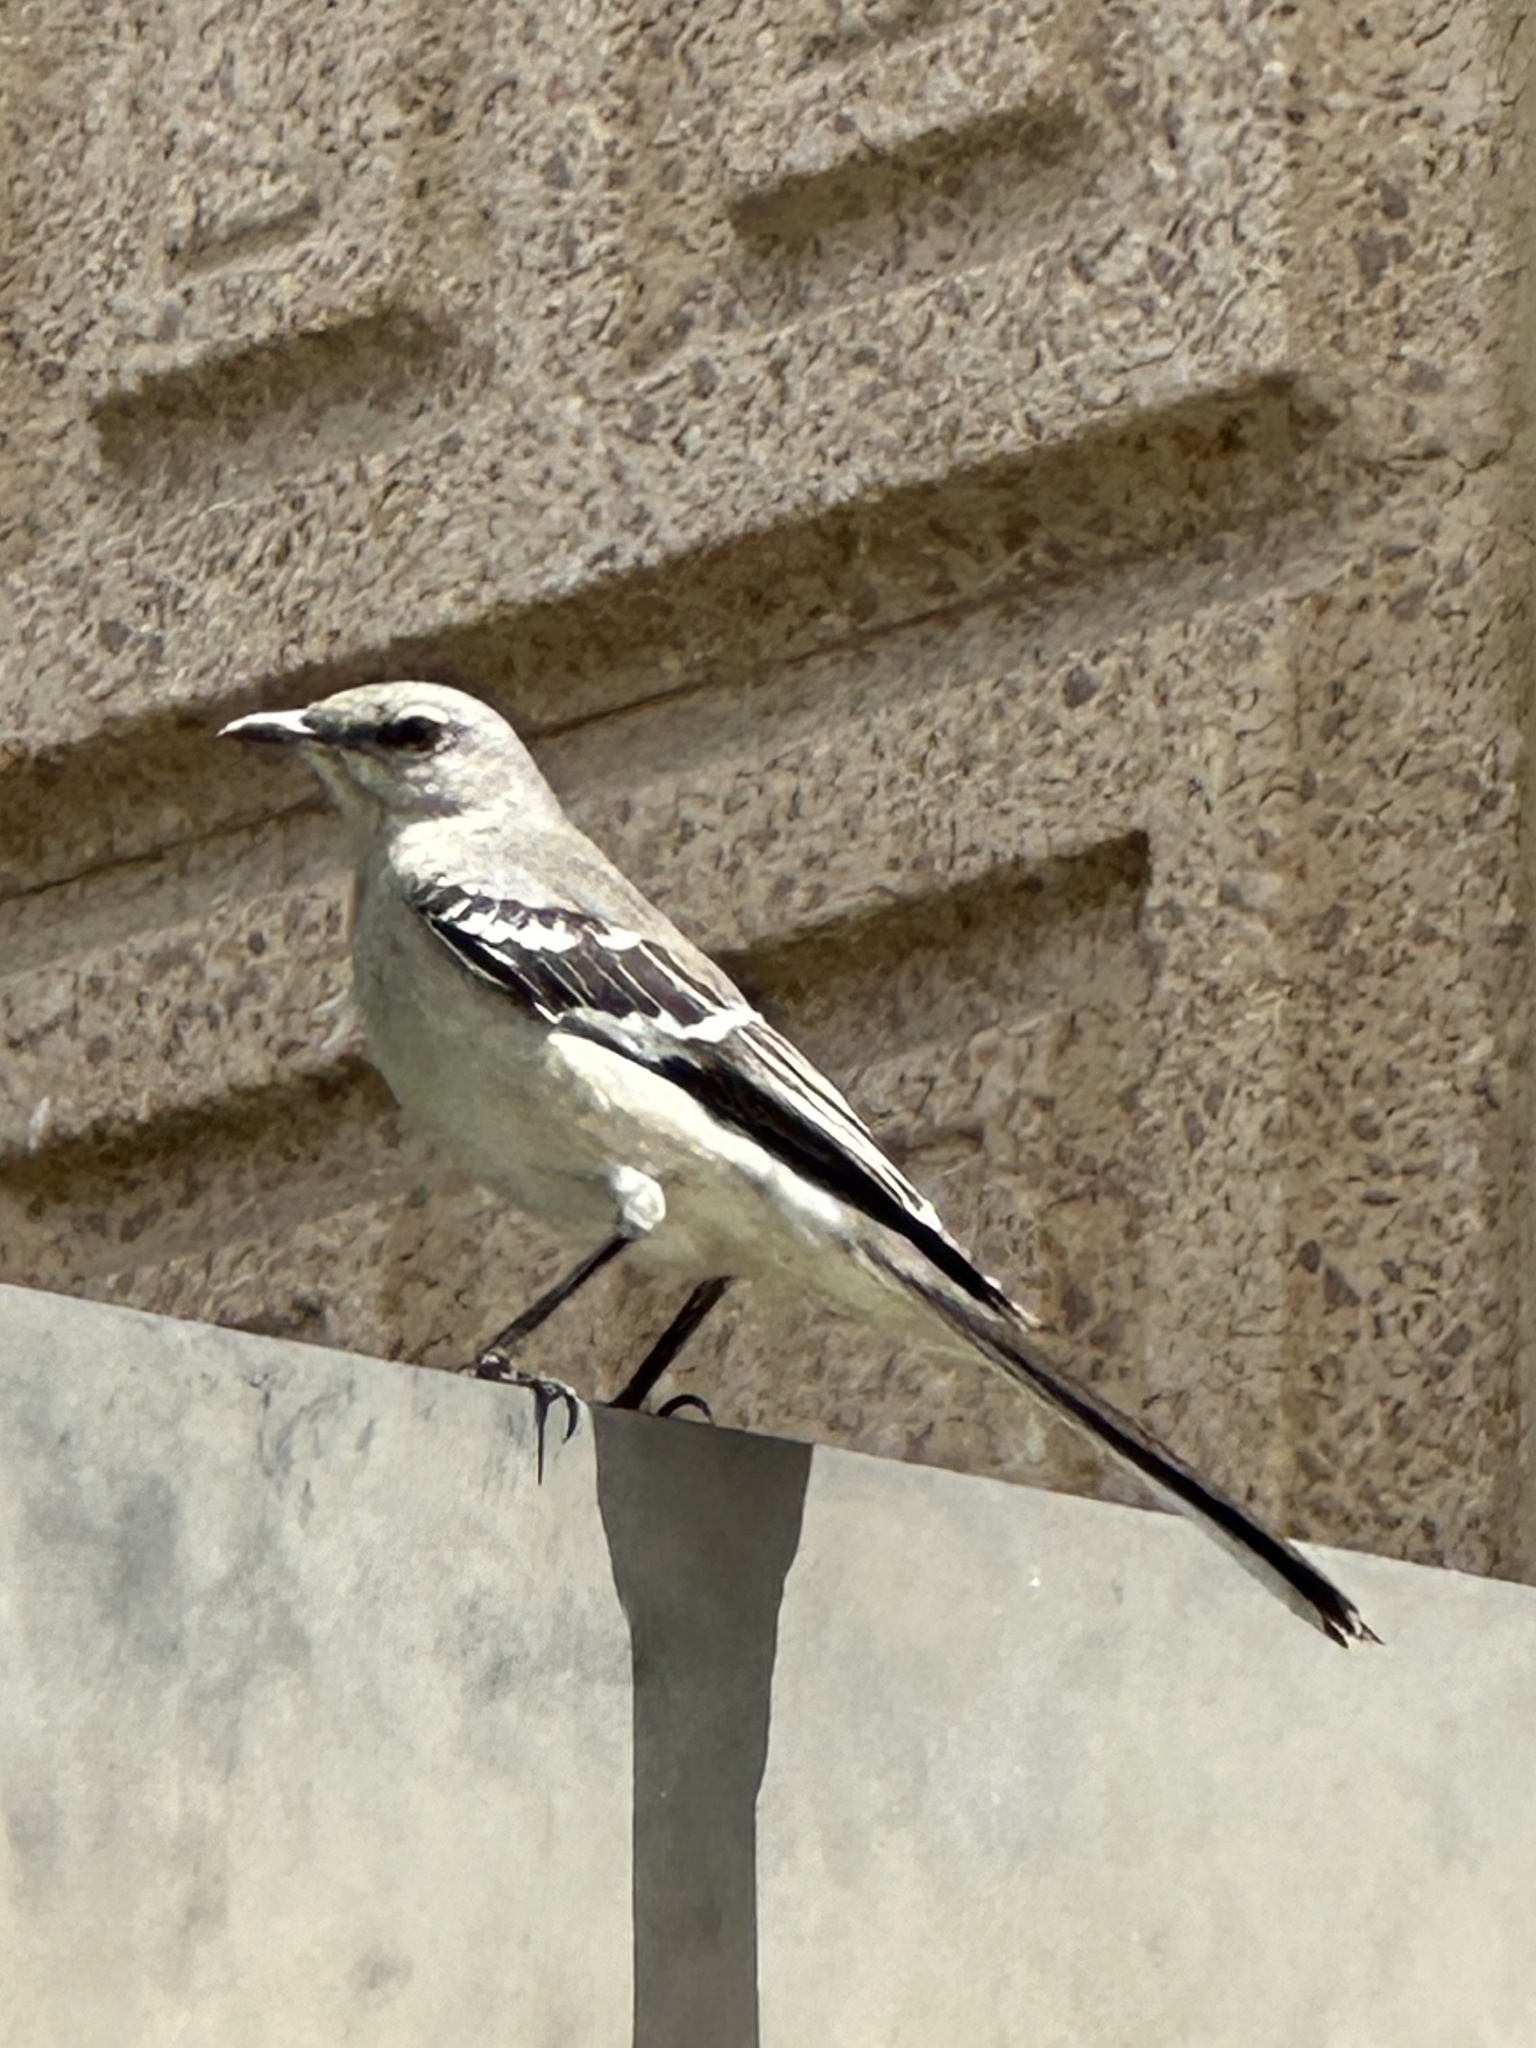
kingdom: Animalia
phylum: Chordata
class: Aves
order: Passeriformes
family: Mimidae
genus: Mimus
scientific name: Mimus polyglottos
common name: Northern mockingbird
